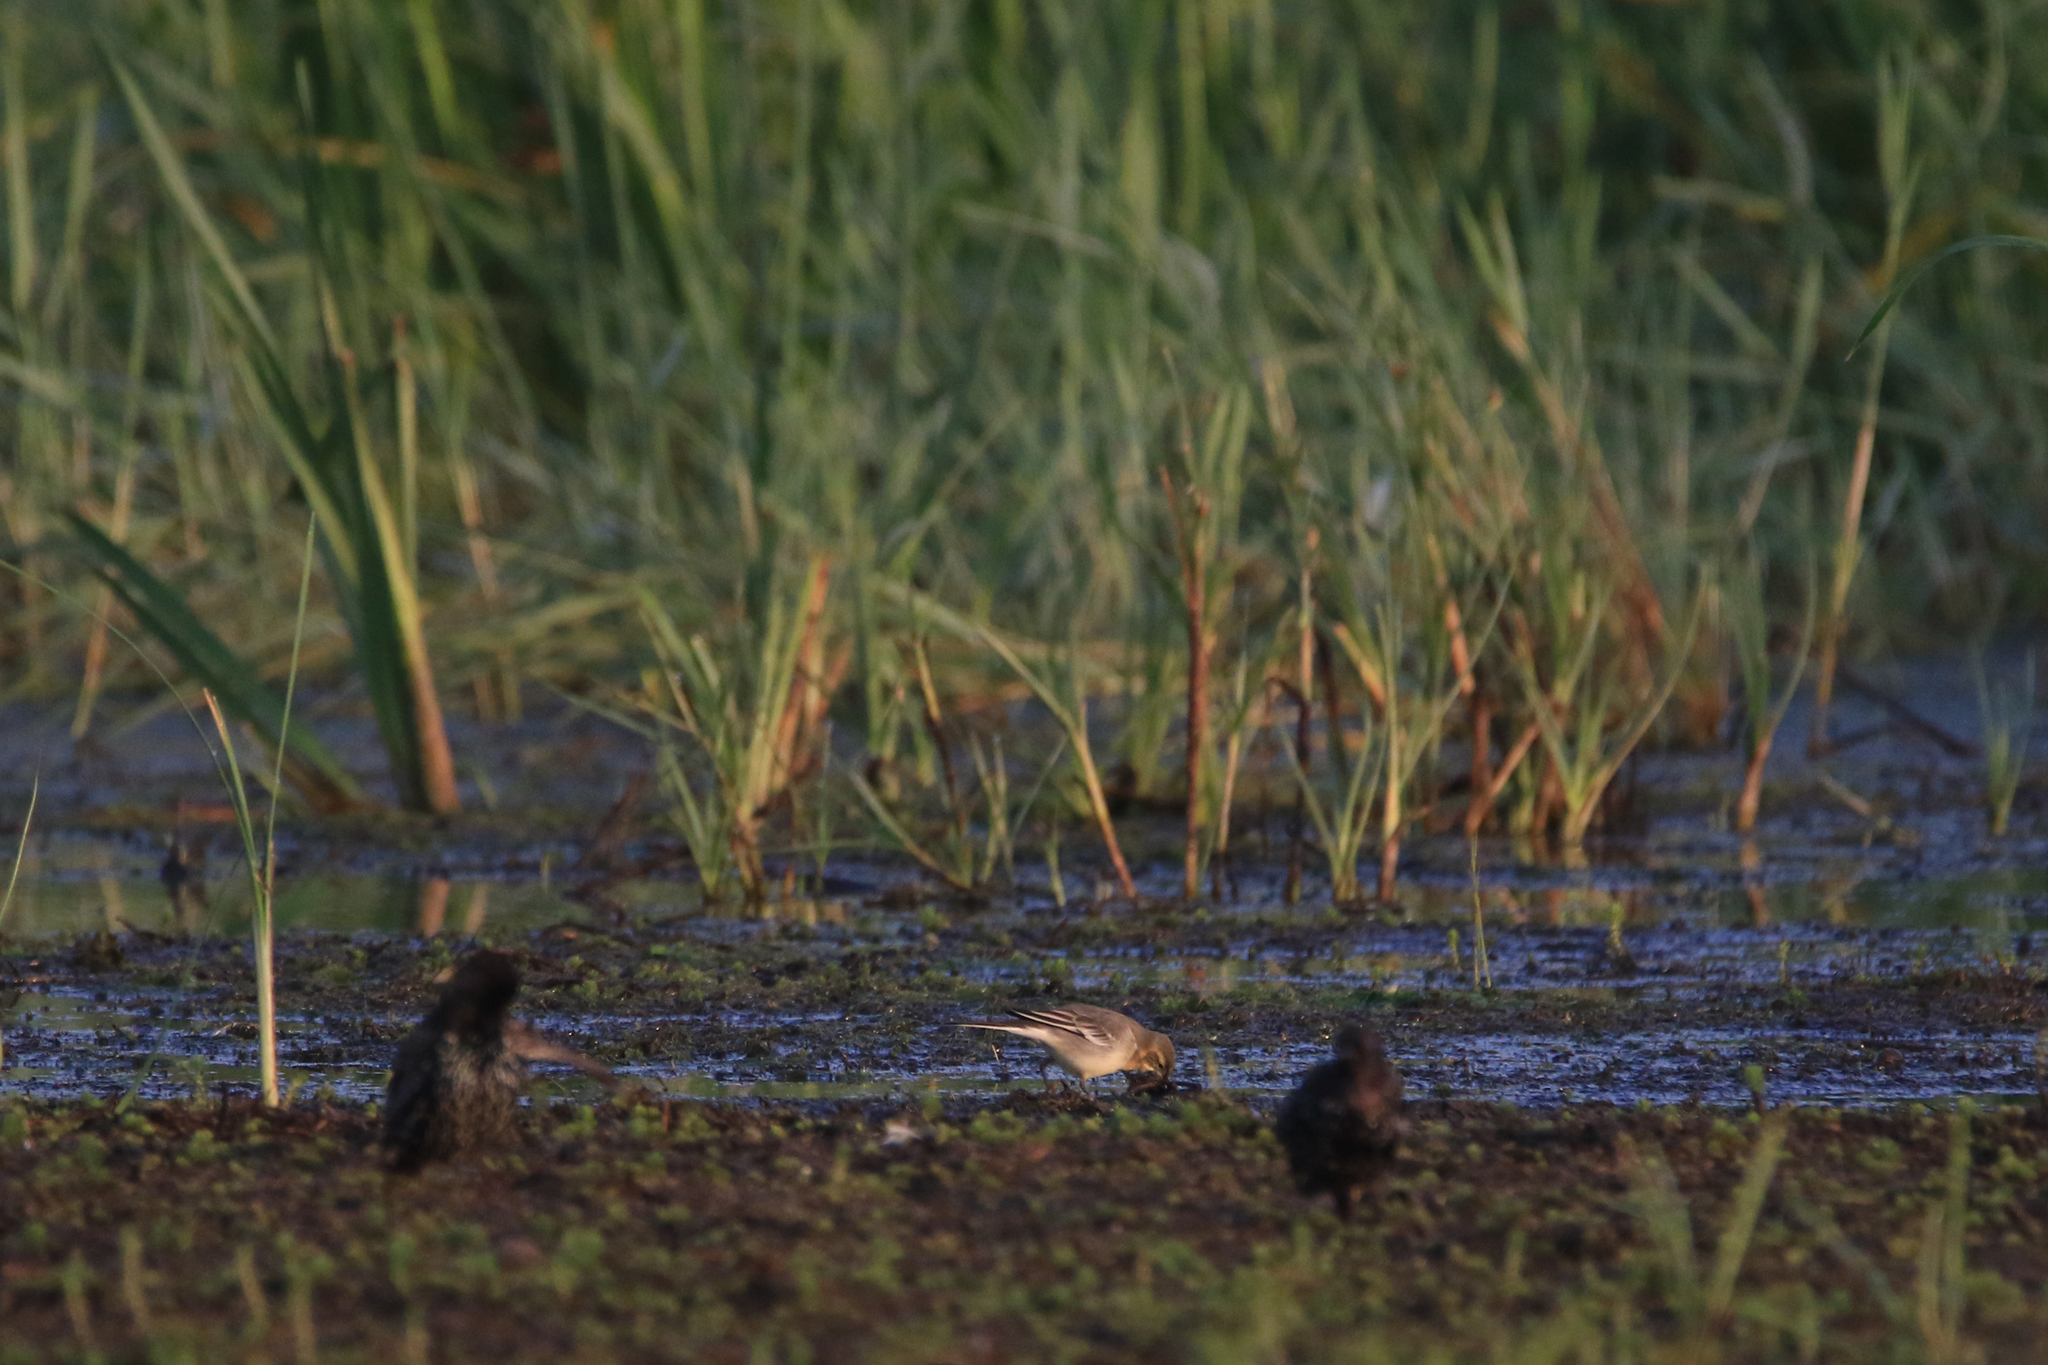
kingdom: Animalia
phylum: Chordata
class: Aves
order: Passeriformes
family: Motacillidae
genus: Motacilla
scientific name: Motacilla citreola
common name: Citrine wagtail
